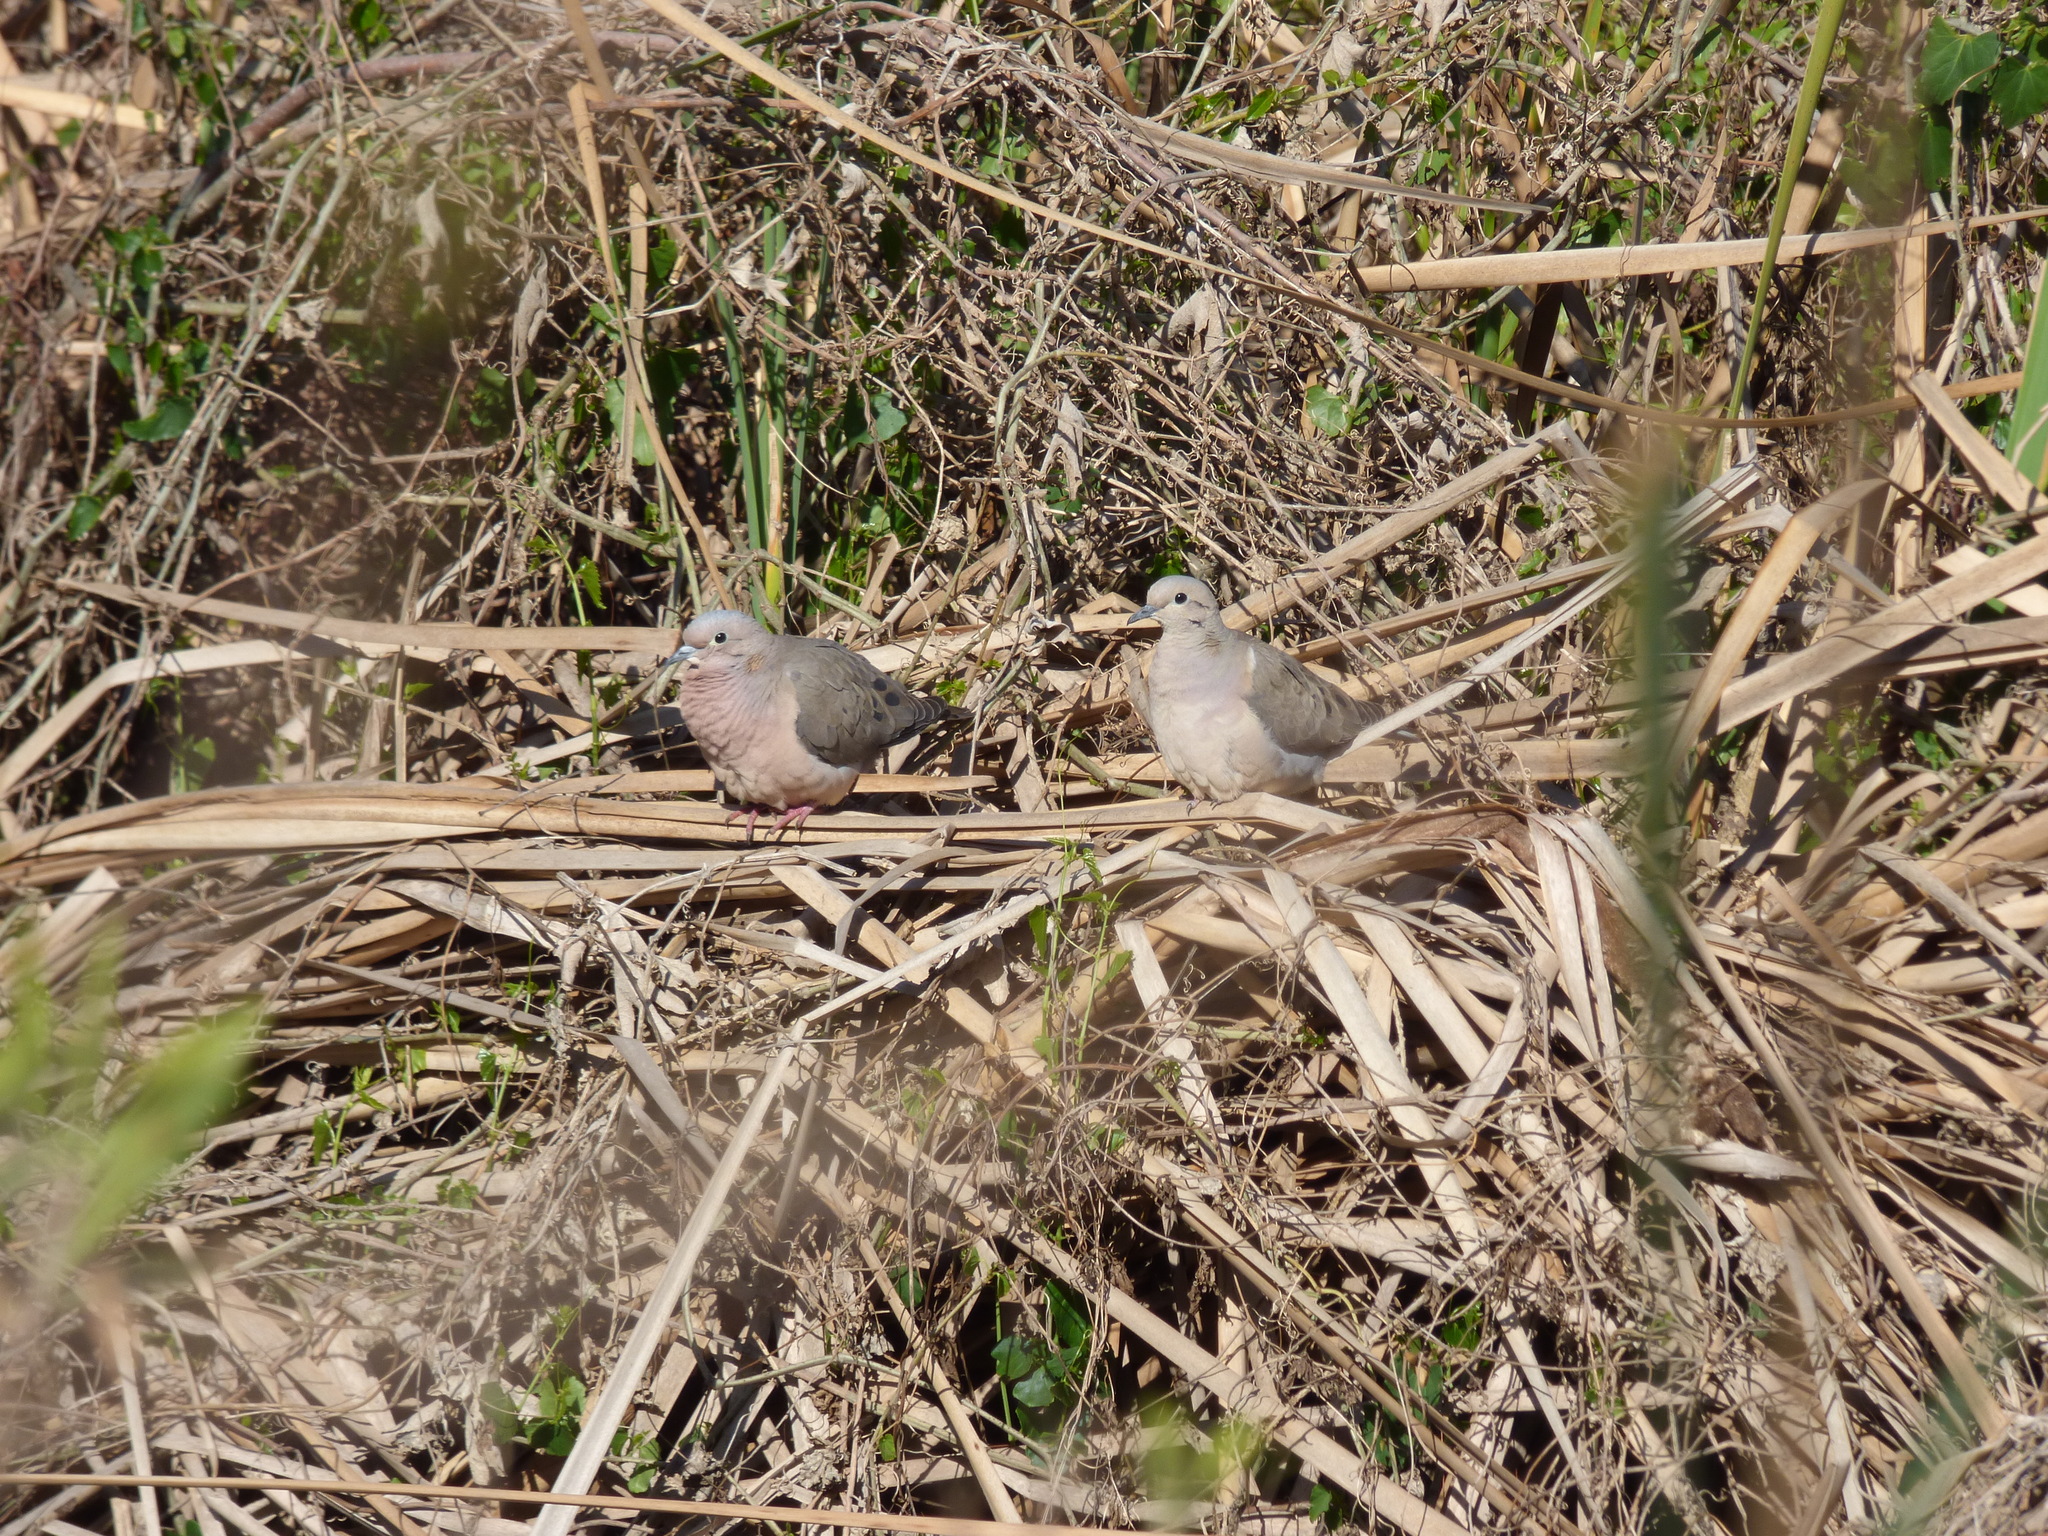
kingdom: Animalia
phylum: Chordata
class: Aves
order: Columbiformes
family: Columbidae
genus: Zenaida
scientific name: Zenaida auriculata
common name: Eared dove
